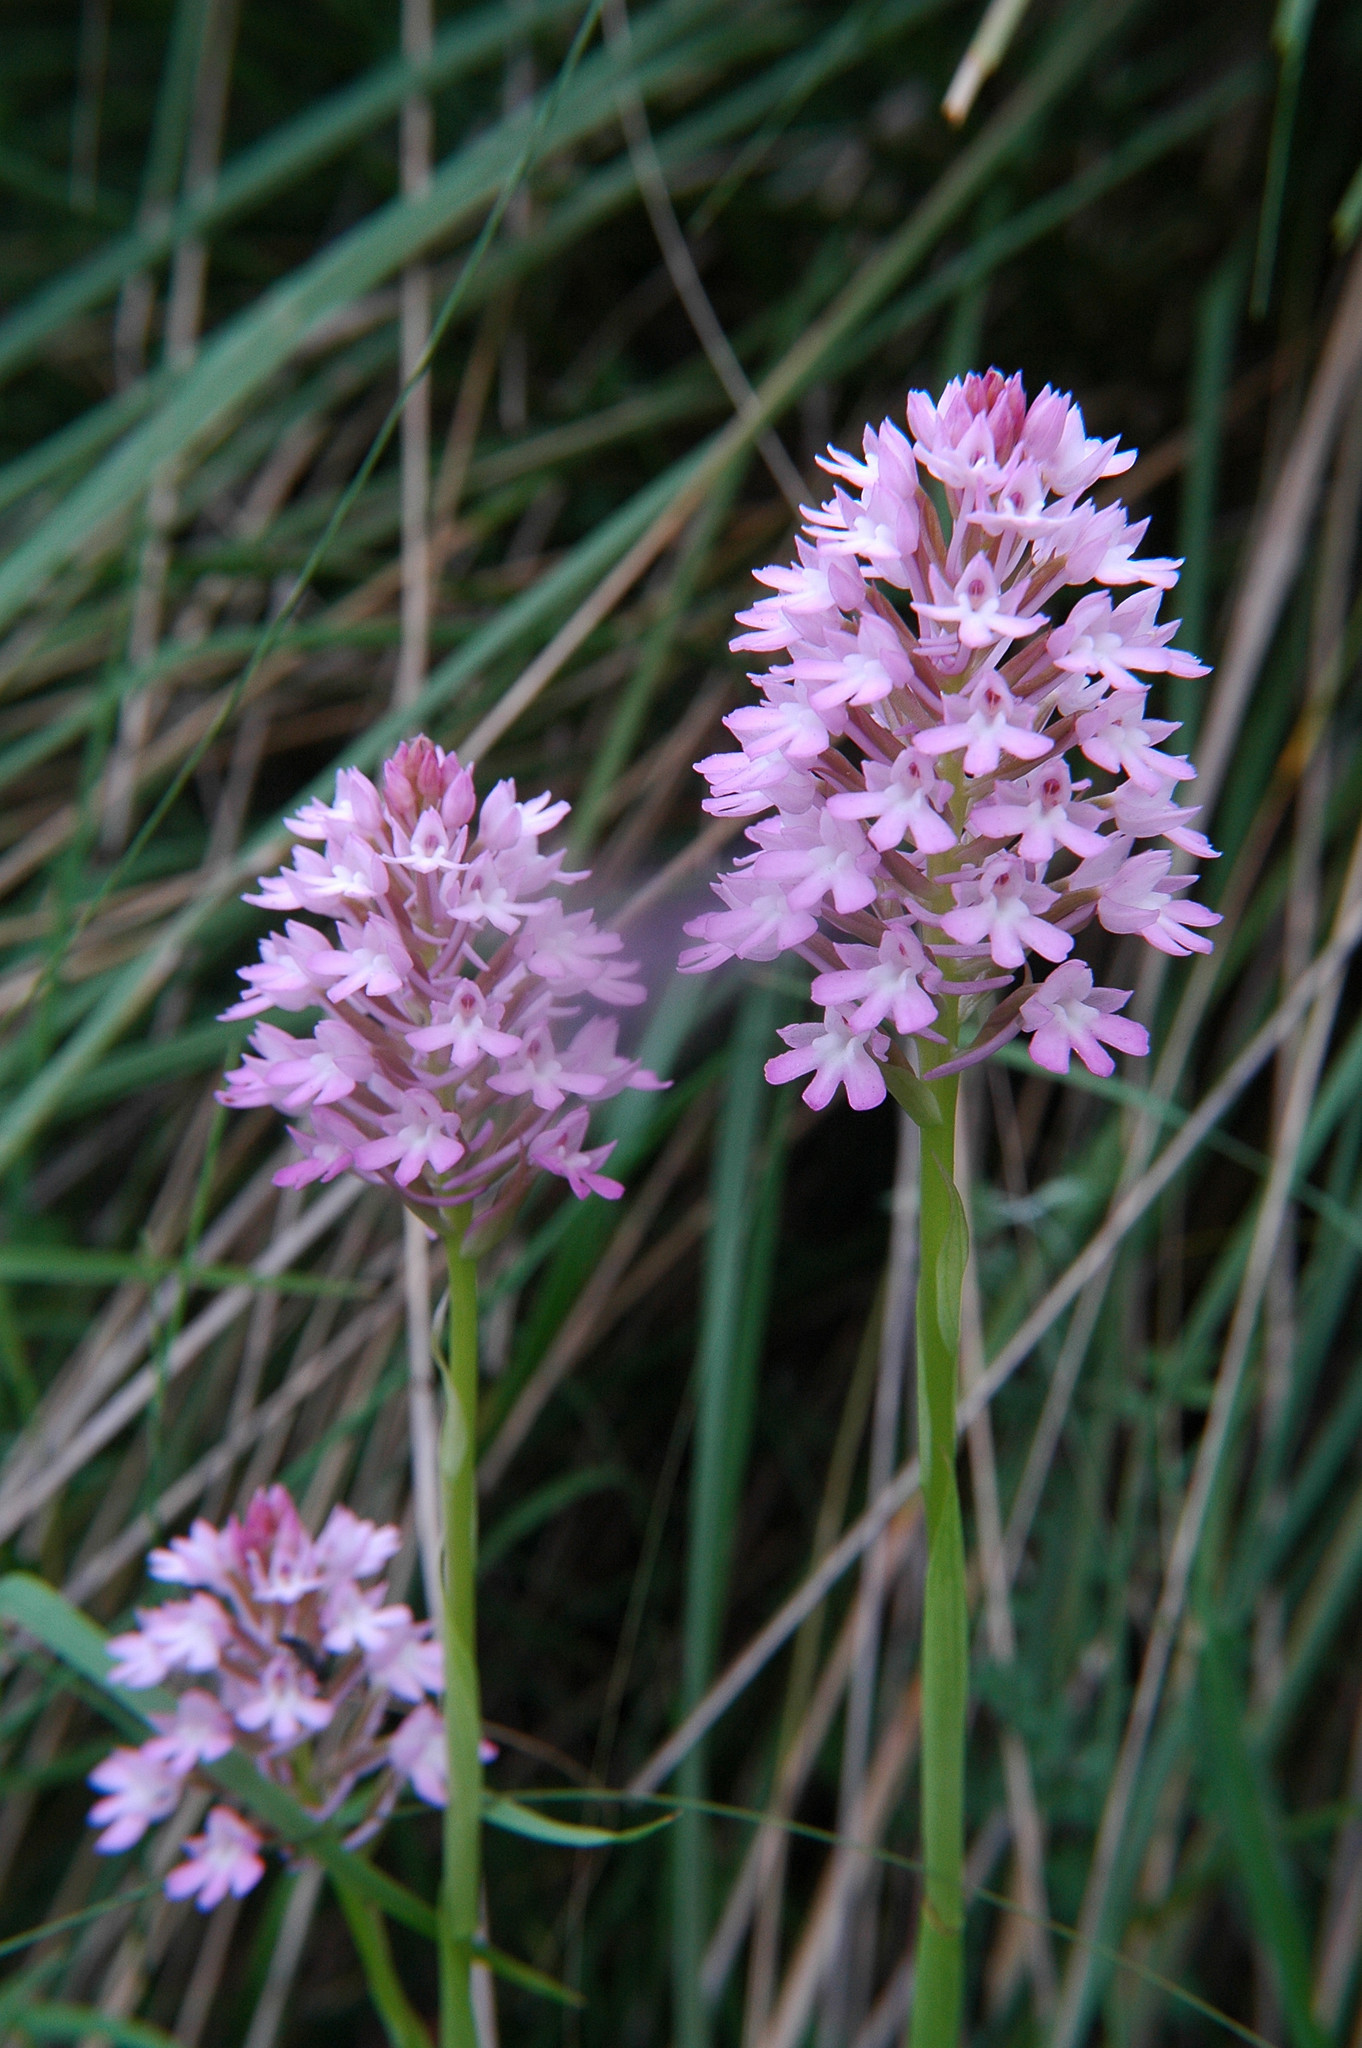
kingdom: Plantae
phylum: Tracheophyta
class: Liliopsida
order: Asparagales
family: Orchidaceae
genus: Anacamptis
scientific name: Anacamptis pyramidalis
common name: Pyramidal orchid
